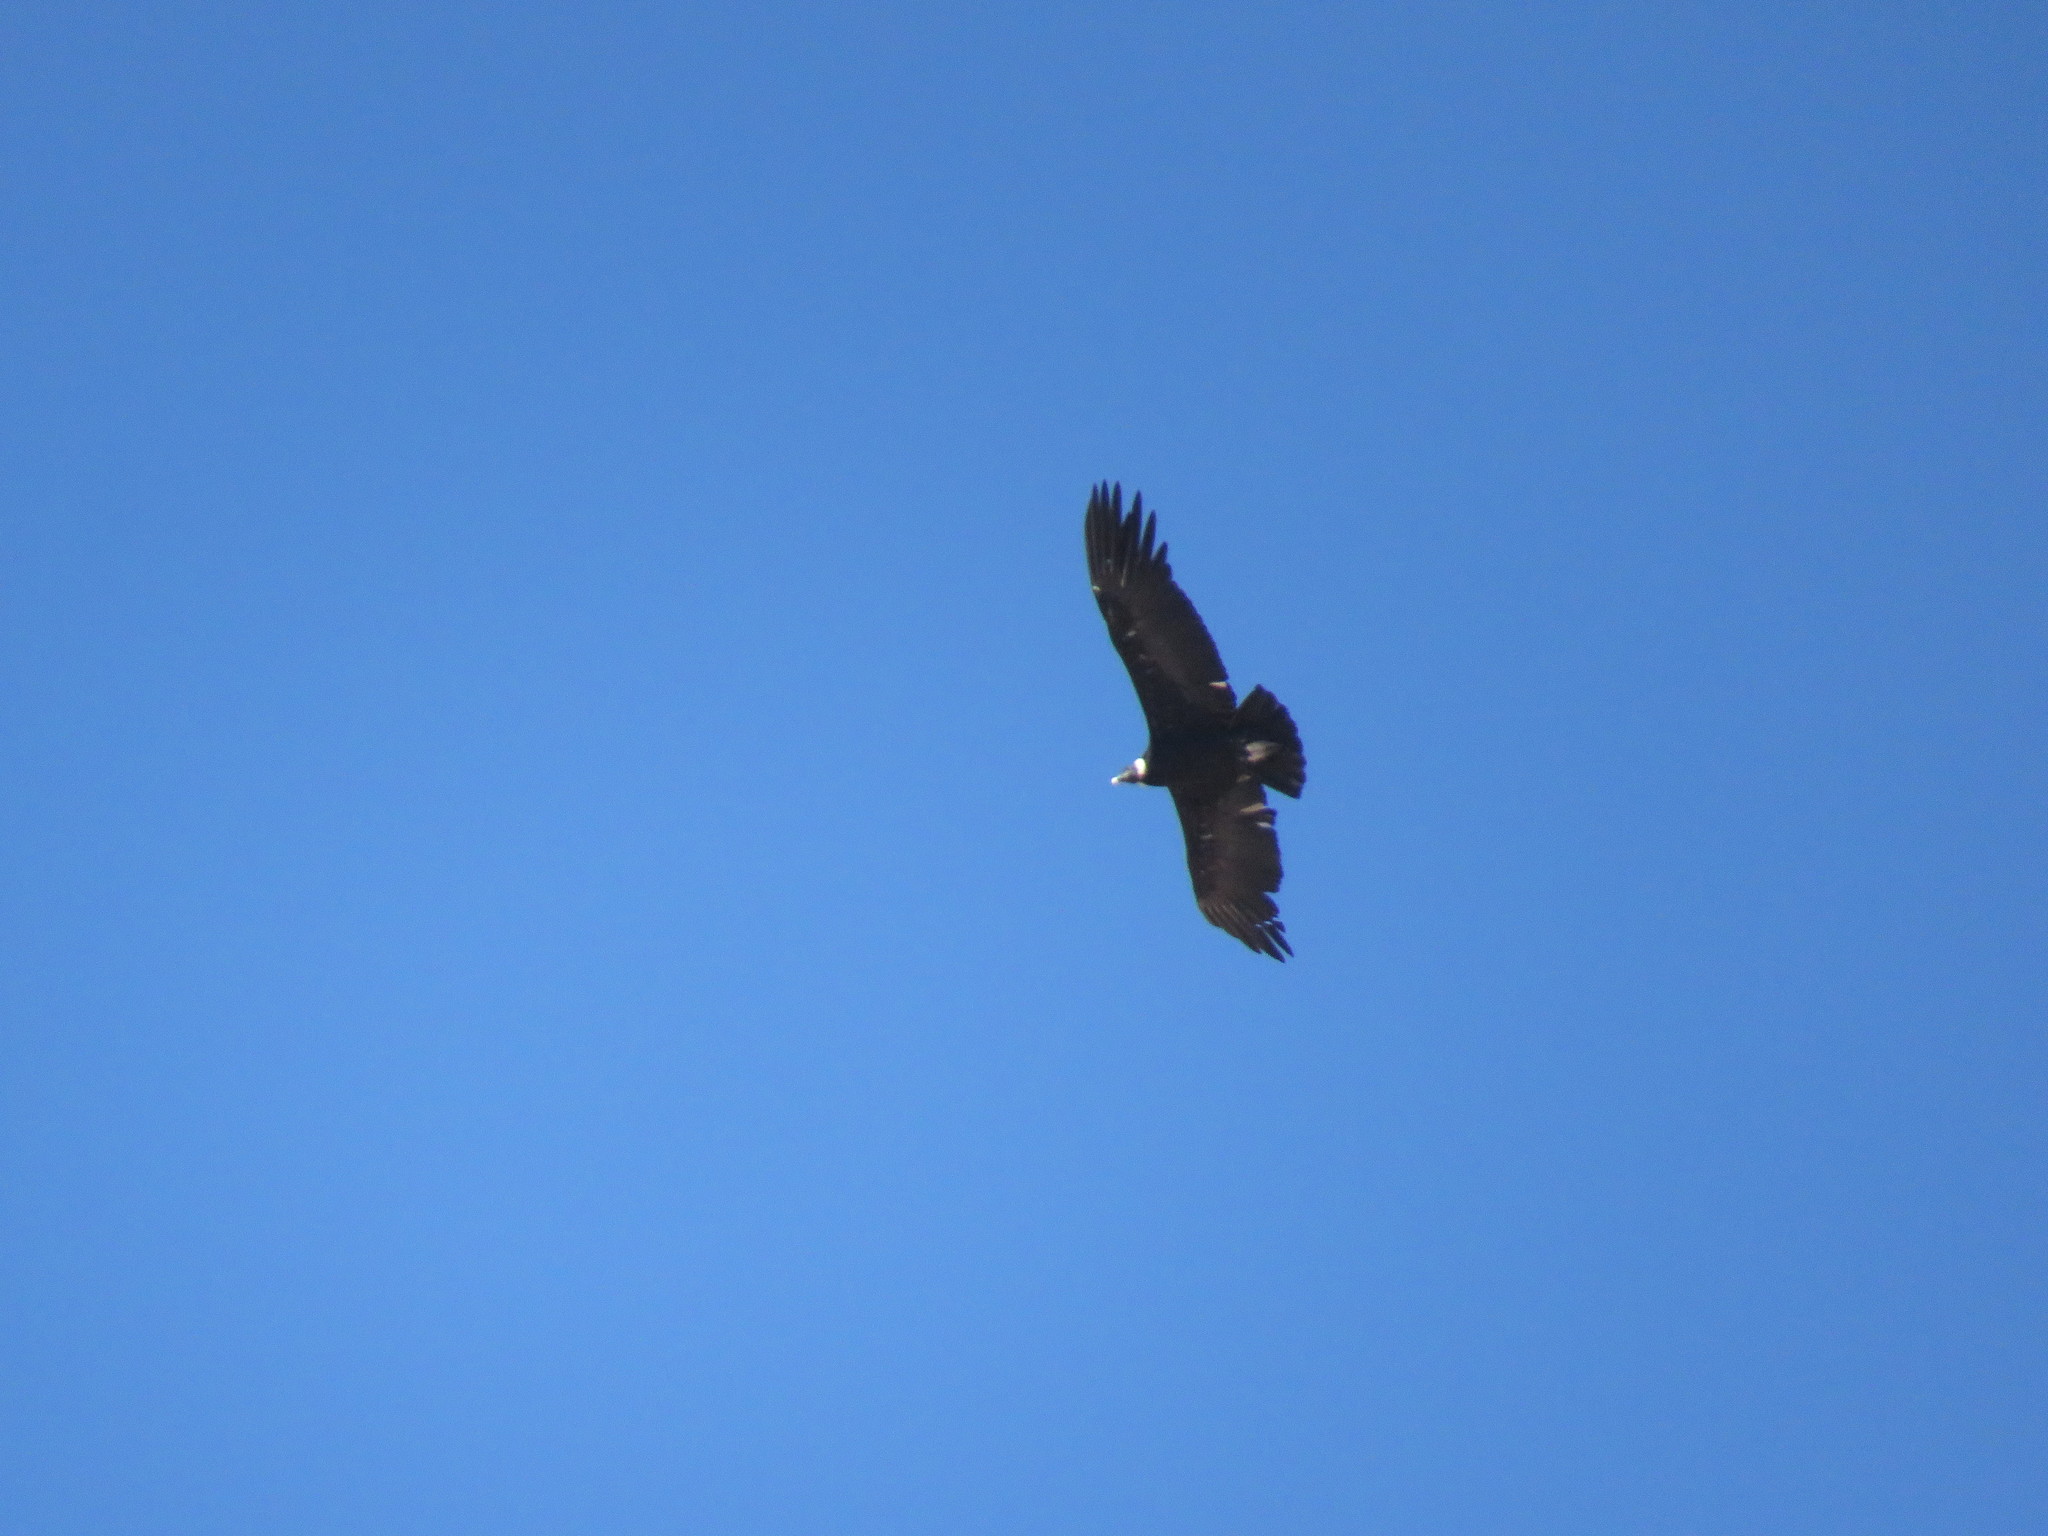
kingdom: Animalia
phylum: Chordata
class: Aves
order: Accipitriformes
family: Cathartidae
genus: Vultur
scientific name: Vultur gryphus
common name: Andean condor
